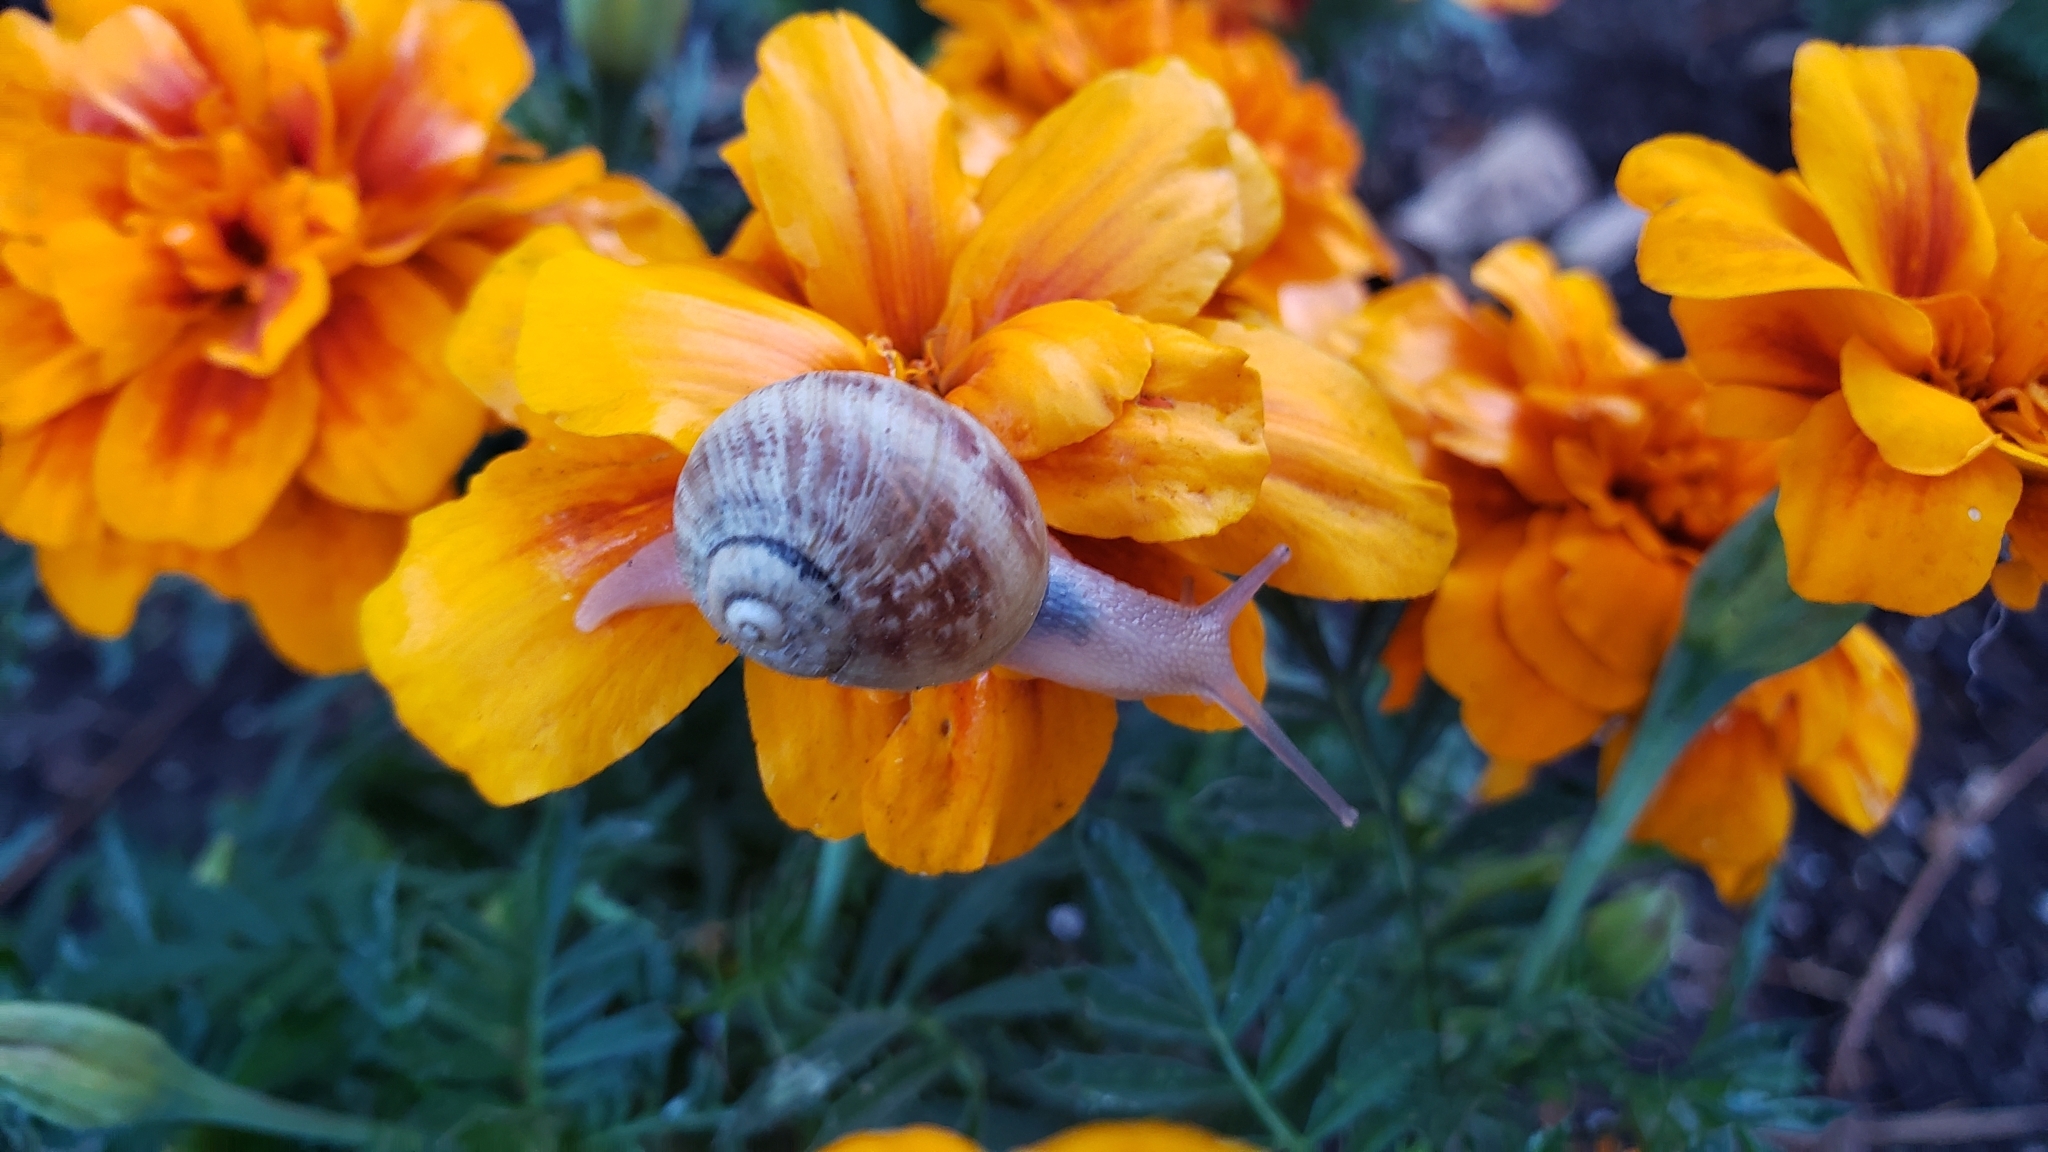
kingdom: Animalia
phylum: Mollusca
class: Gastropoda
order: Stylommatophora
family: Helicidae
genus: Cornu
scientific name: Cornu aspersum
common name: Brown garden snail
